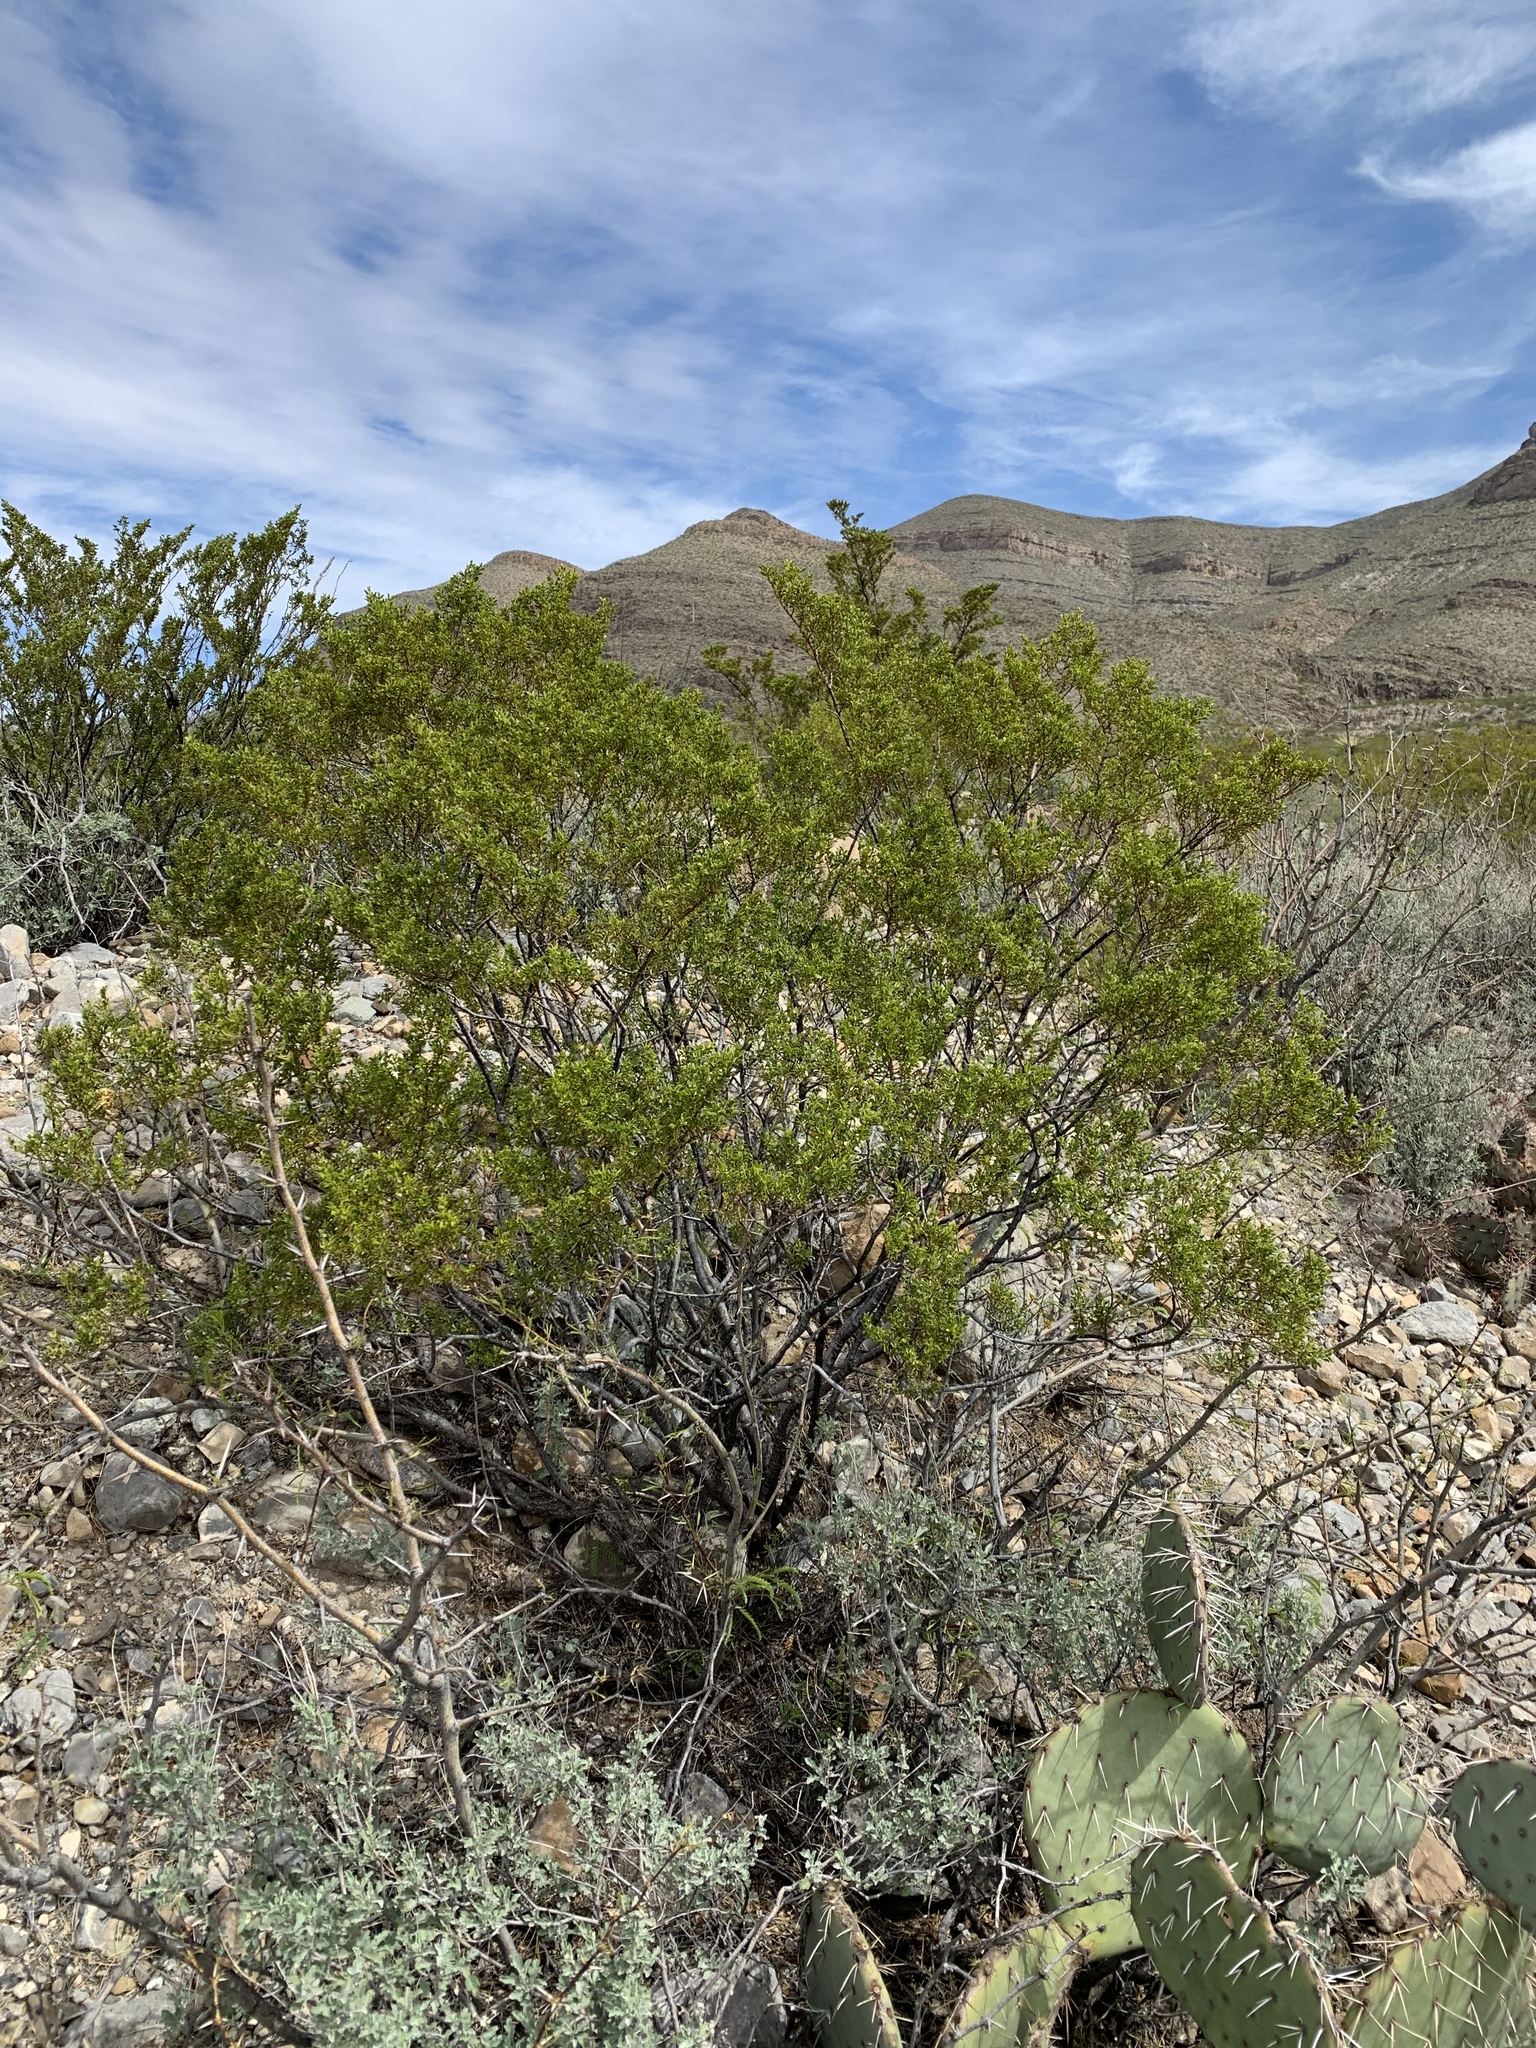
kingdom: Plantae
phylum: Tracheophyta
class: Magnoliopsida
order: Zygophyllales
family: Zygophyllaceae
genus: Larrea
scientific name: Larrea tridentata
